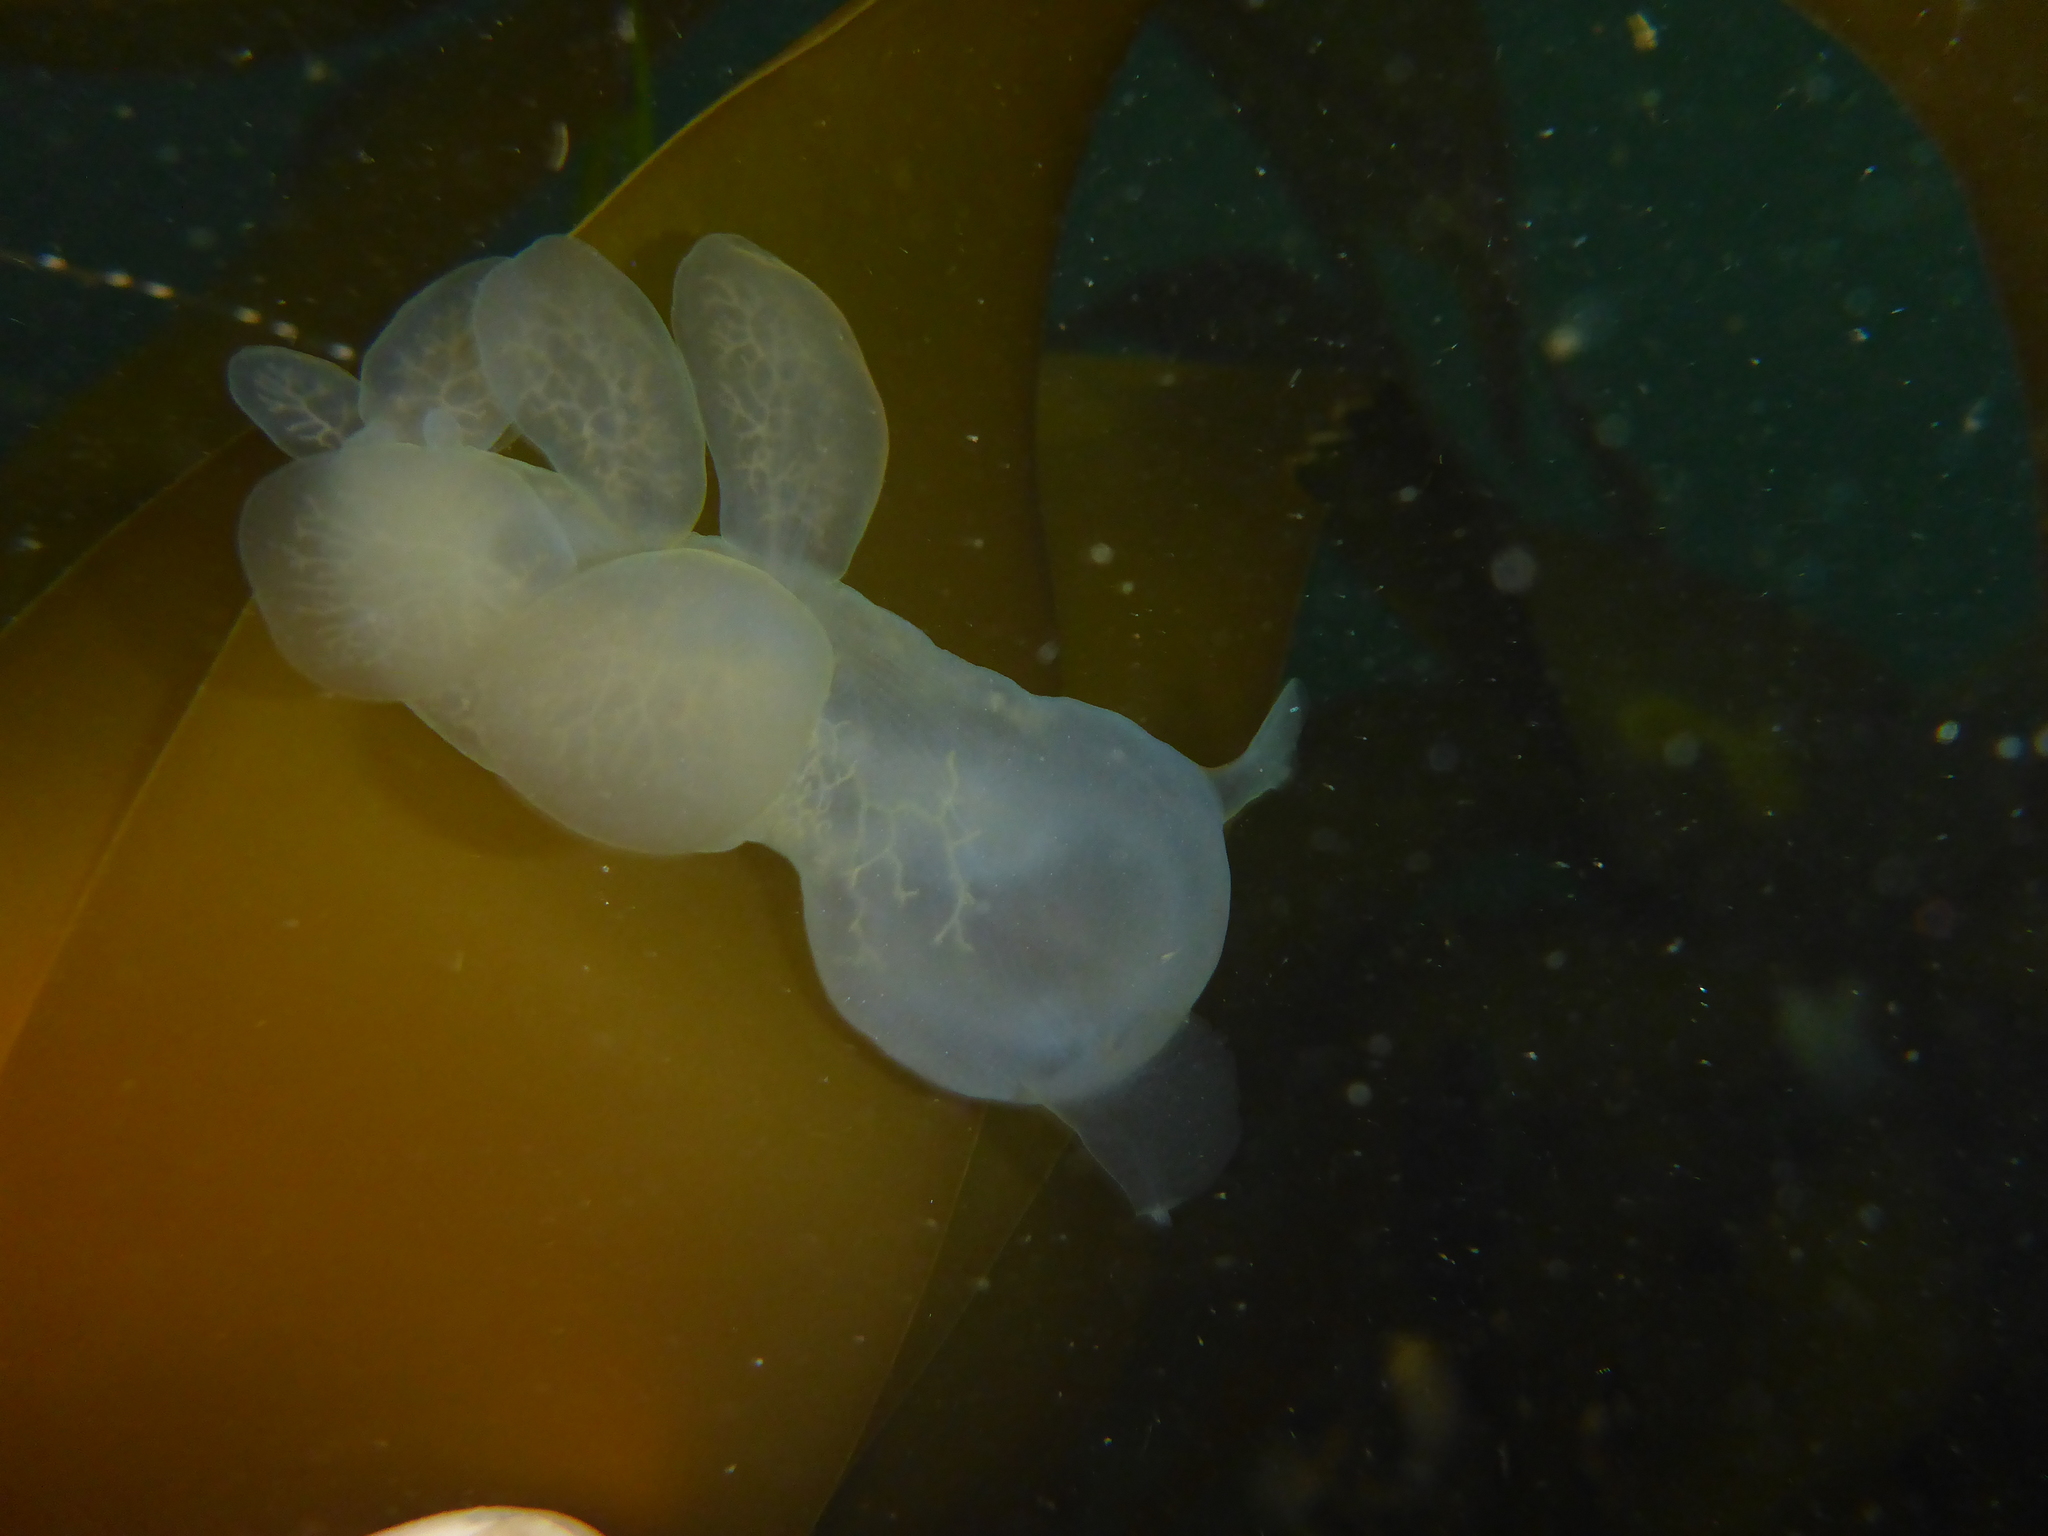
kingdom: Animalia
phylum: Mollusca
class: Gastropoda
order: Nudibranchia
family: Tethydidae
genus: Melibe
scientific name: Melibe leonina
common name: Lion nudibranch
